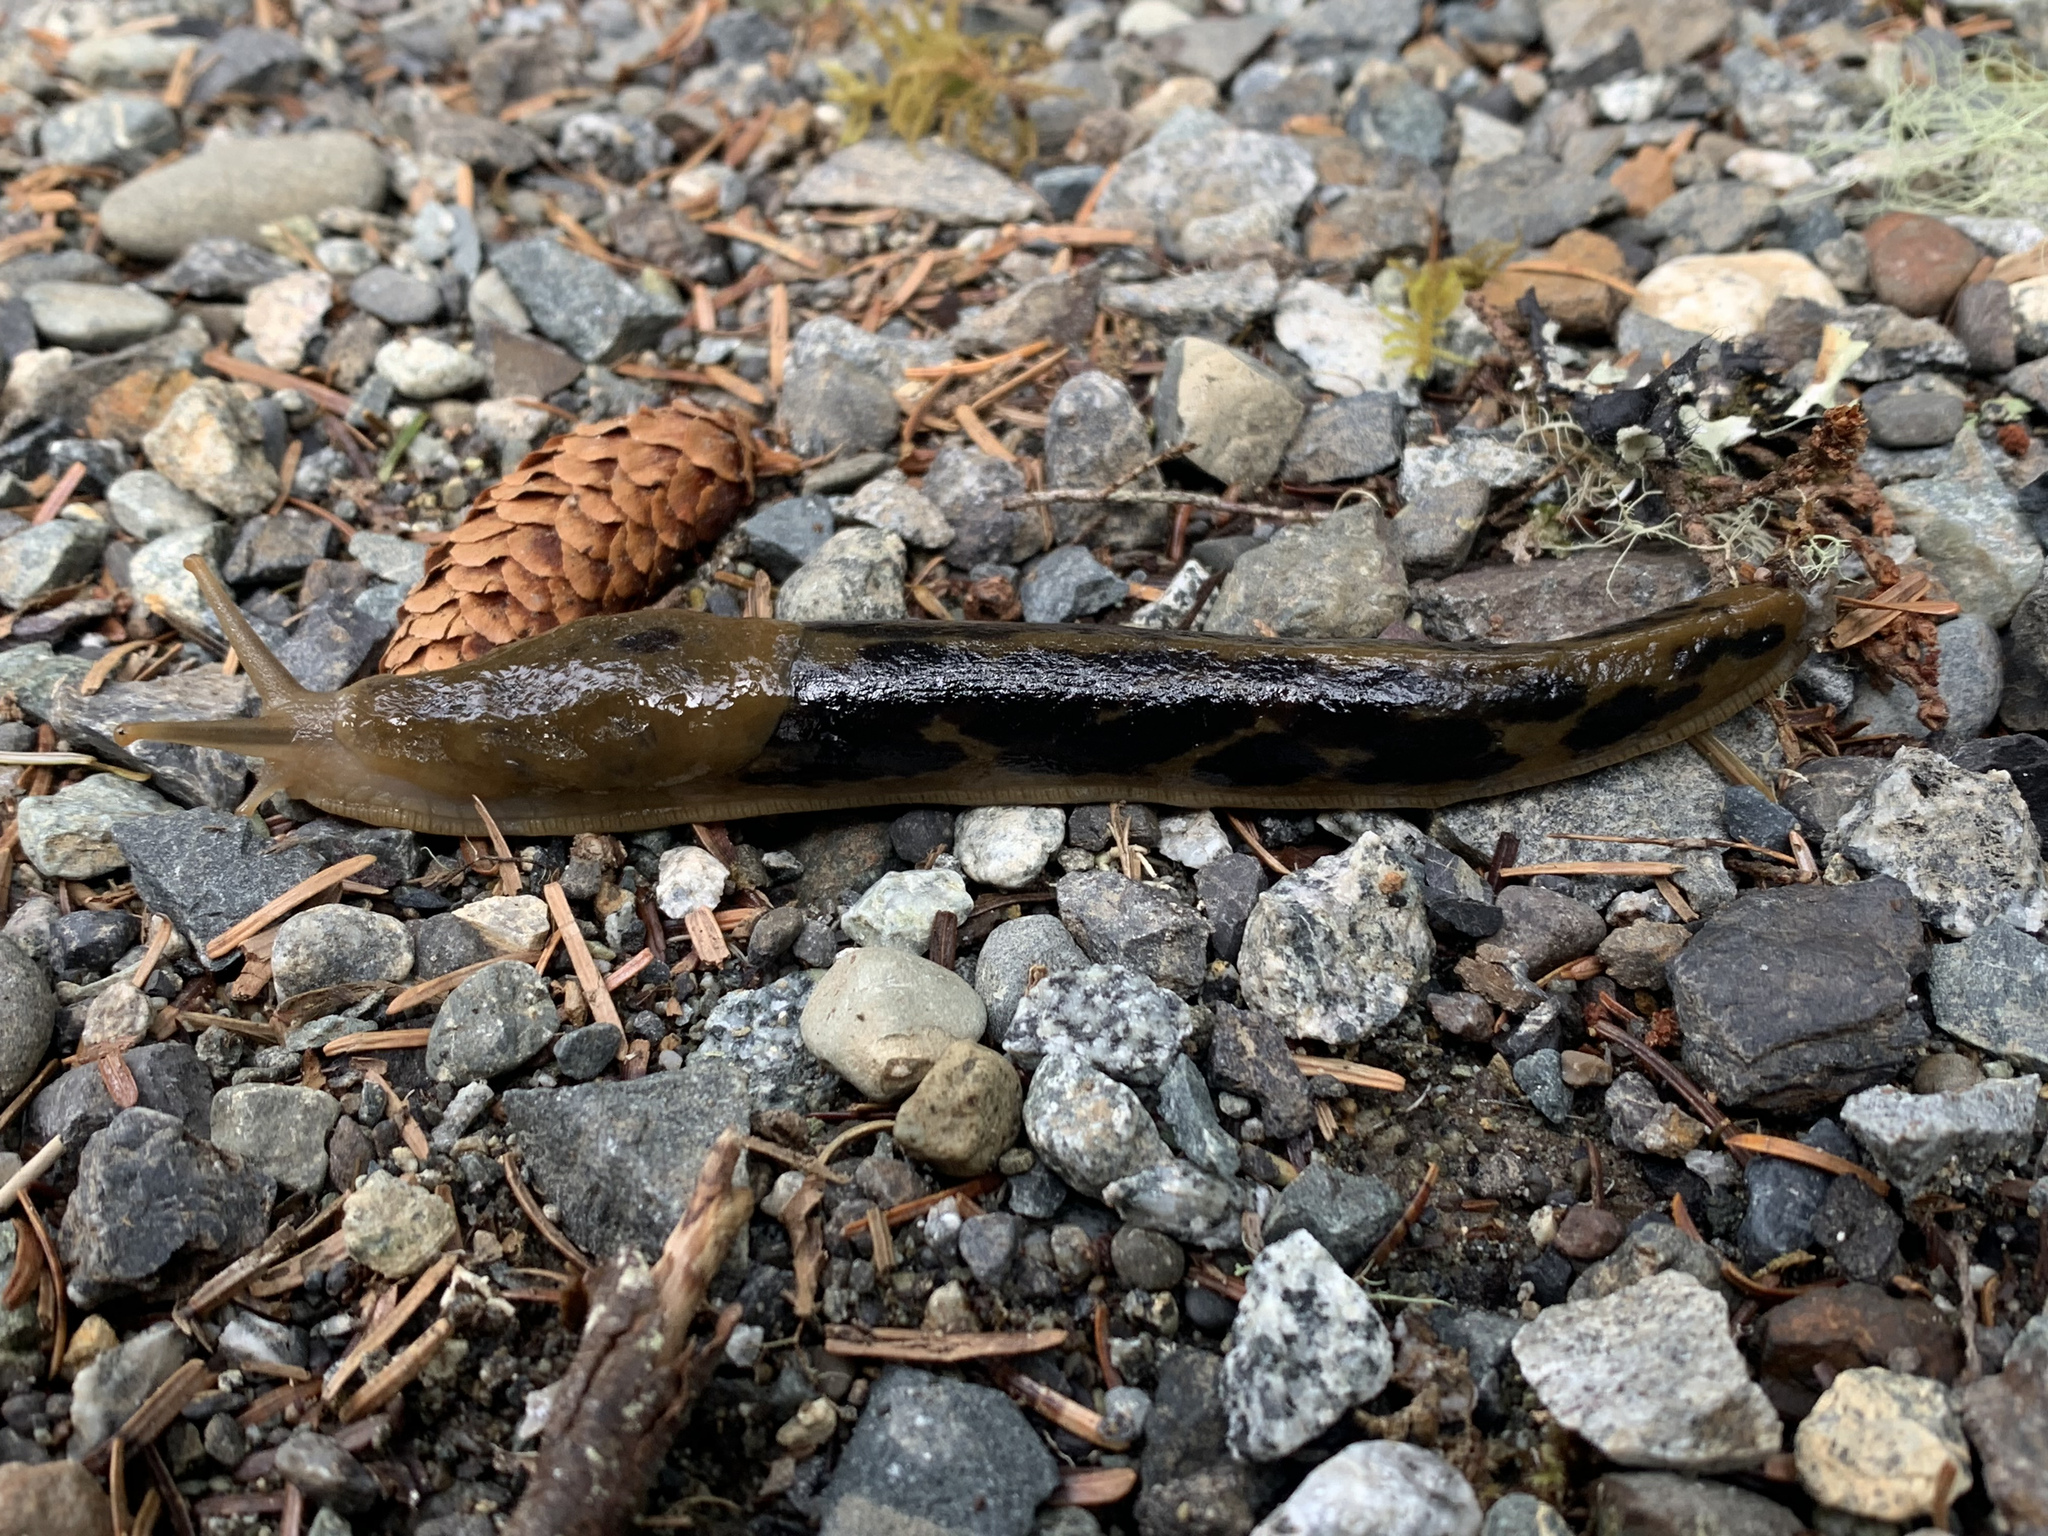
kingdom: Animalia
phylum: Mollusca
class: Gastropoda
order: Stylommatophora
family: Ariolimacidae
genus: Ariolimax
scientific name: Ariolimax columbianus
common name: Pacific banana slug
